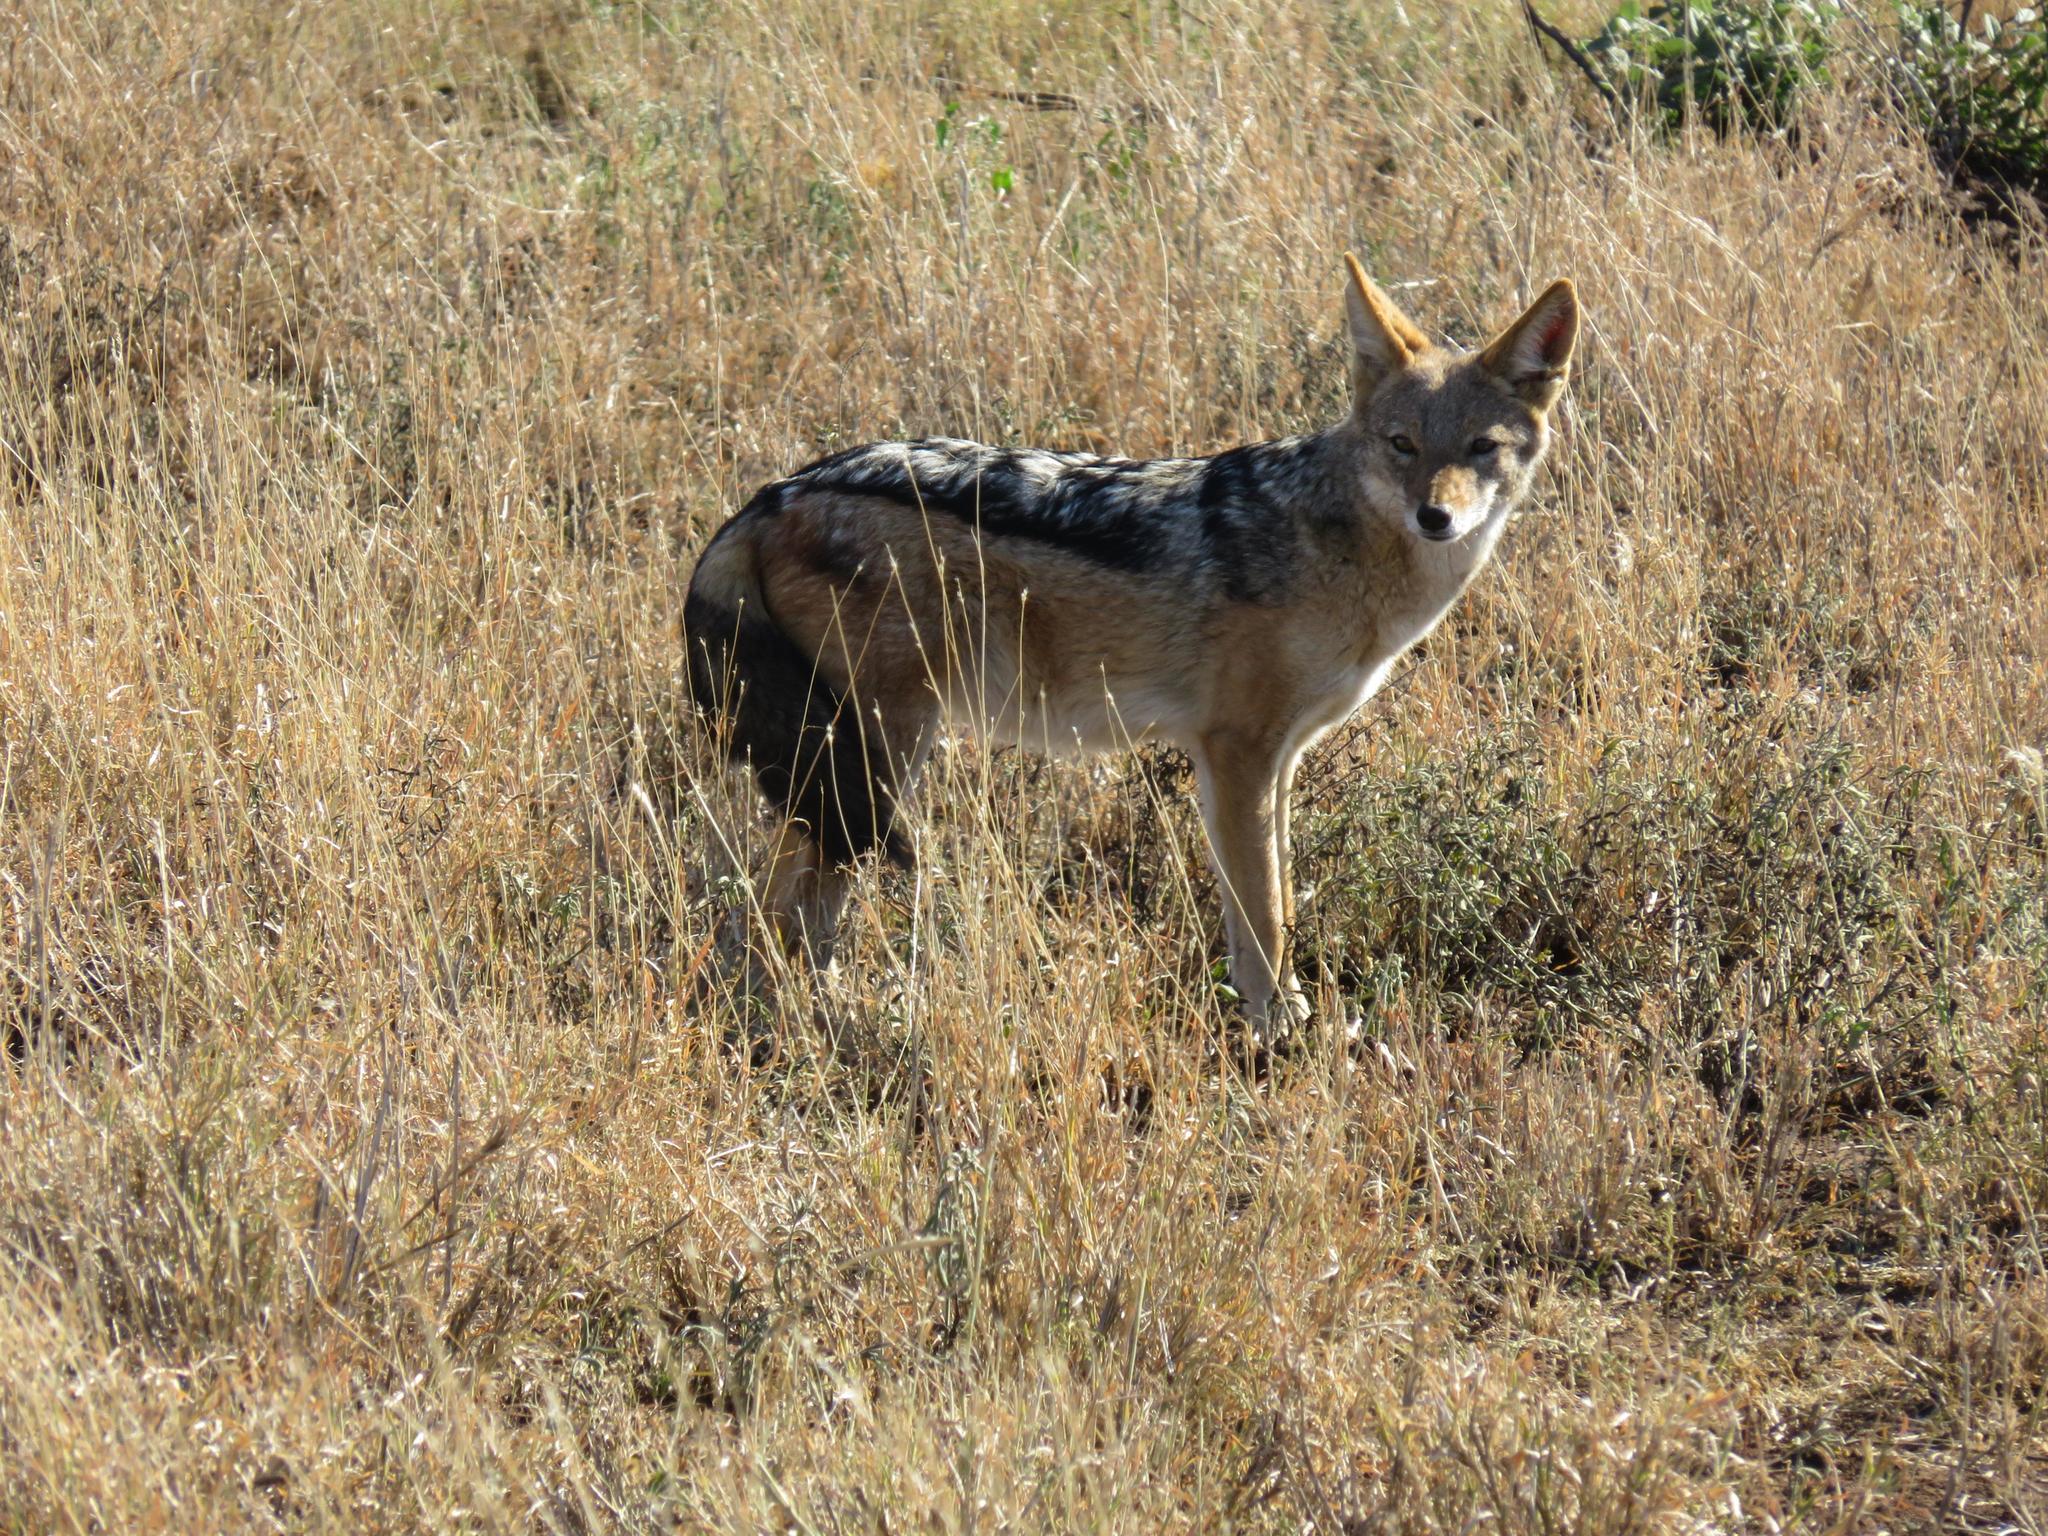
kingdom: Animalia
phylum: Chordata
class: Mammalia
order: Carnivora
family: Canidae
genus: Lupulella
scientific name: Lupulella
